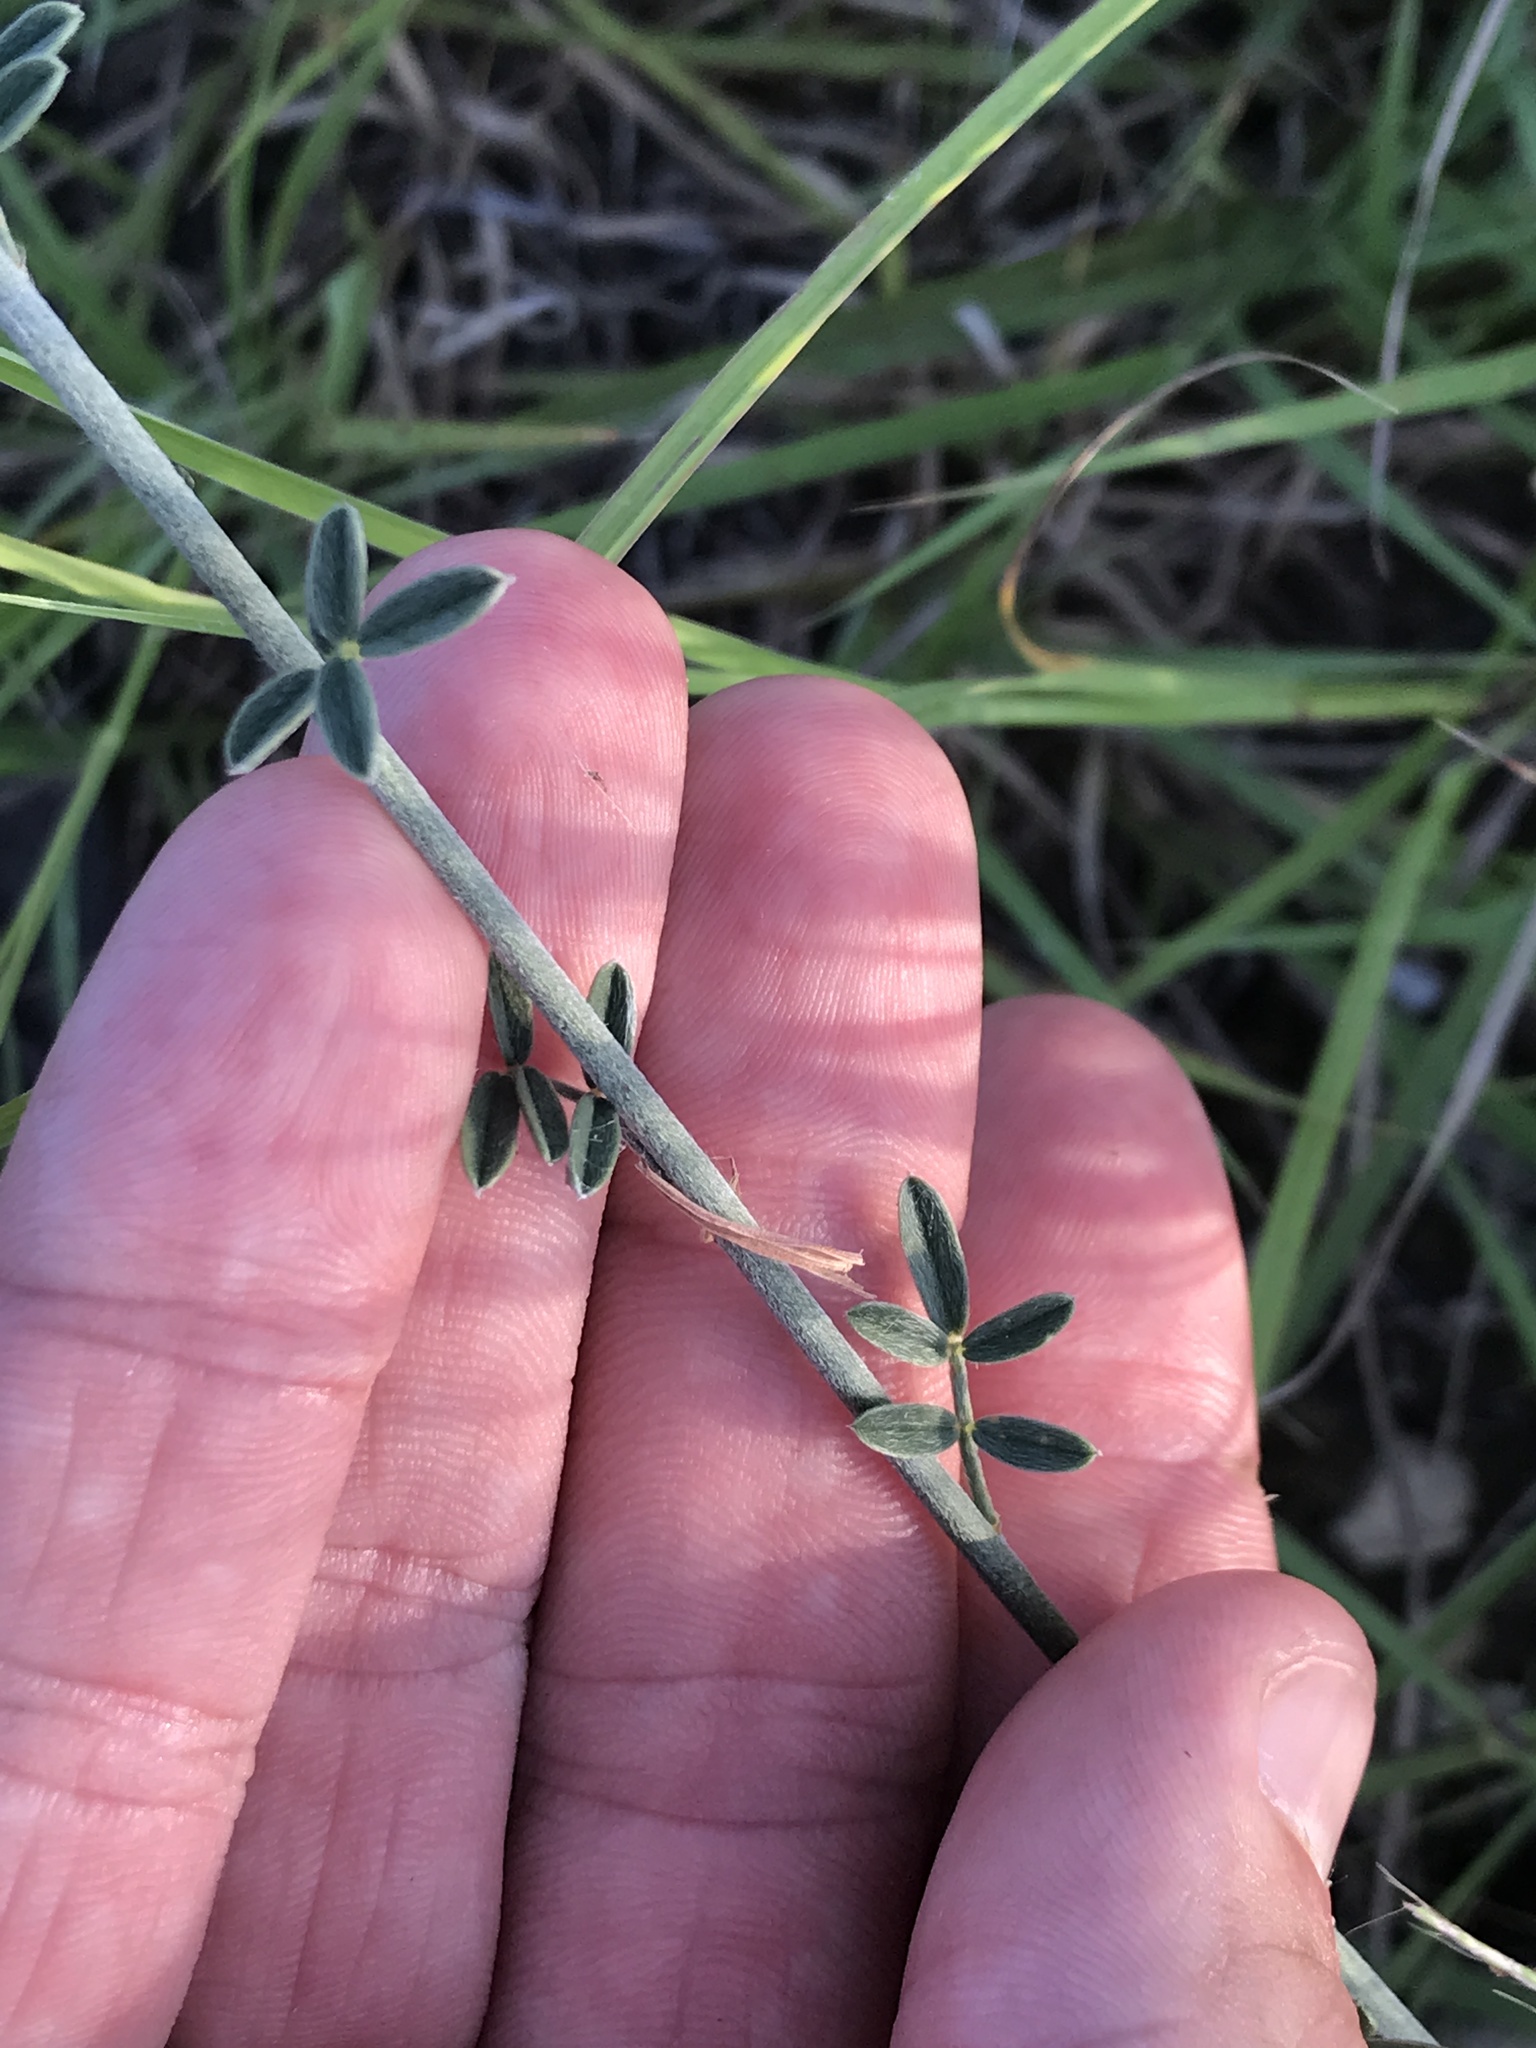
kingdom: Plantae
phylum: Tracheophyta
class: Magnoliopsida
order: Fabales
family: Fabaceae
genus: Dalea
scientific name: Dalea aurea
